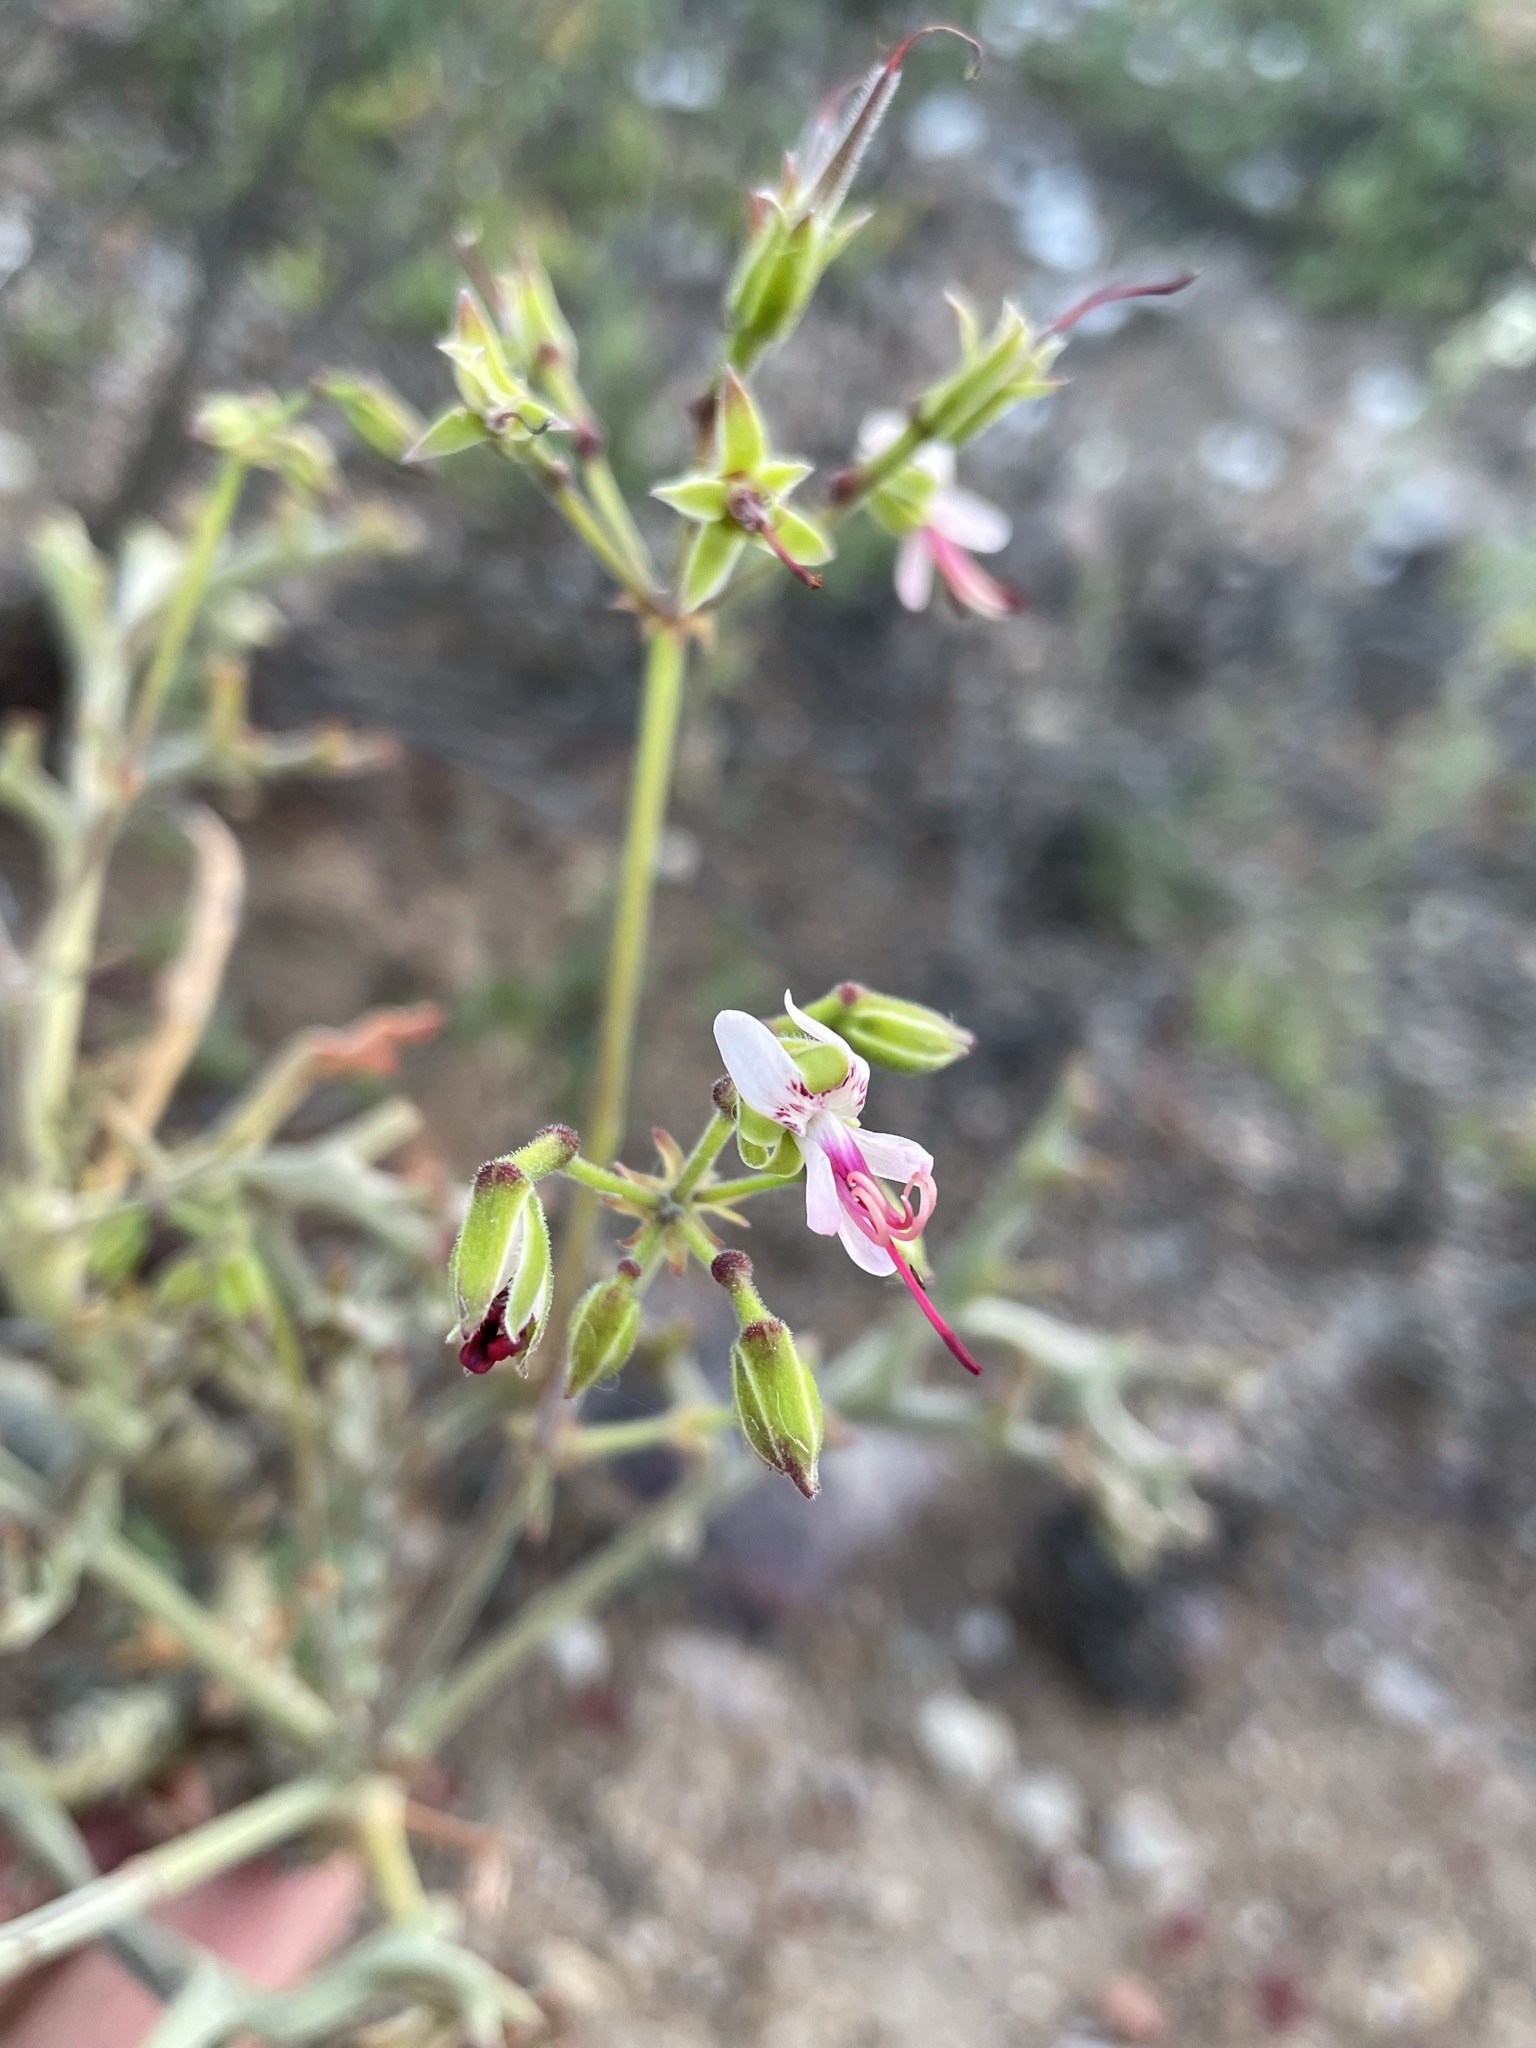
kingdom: Plantae
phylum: Tracheophyta
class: Magnoliopsida
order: Geraniales
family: Geraniaceae
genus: Pelargonium
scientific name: Pelargonium karooescens
